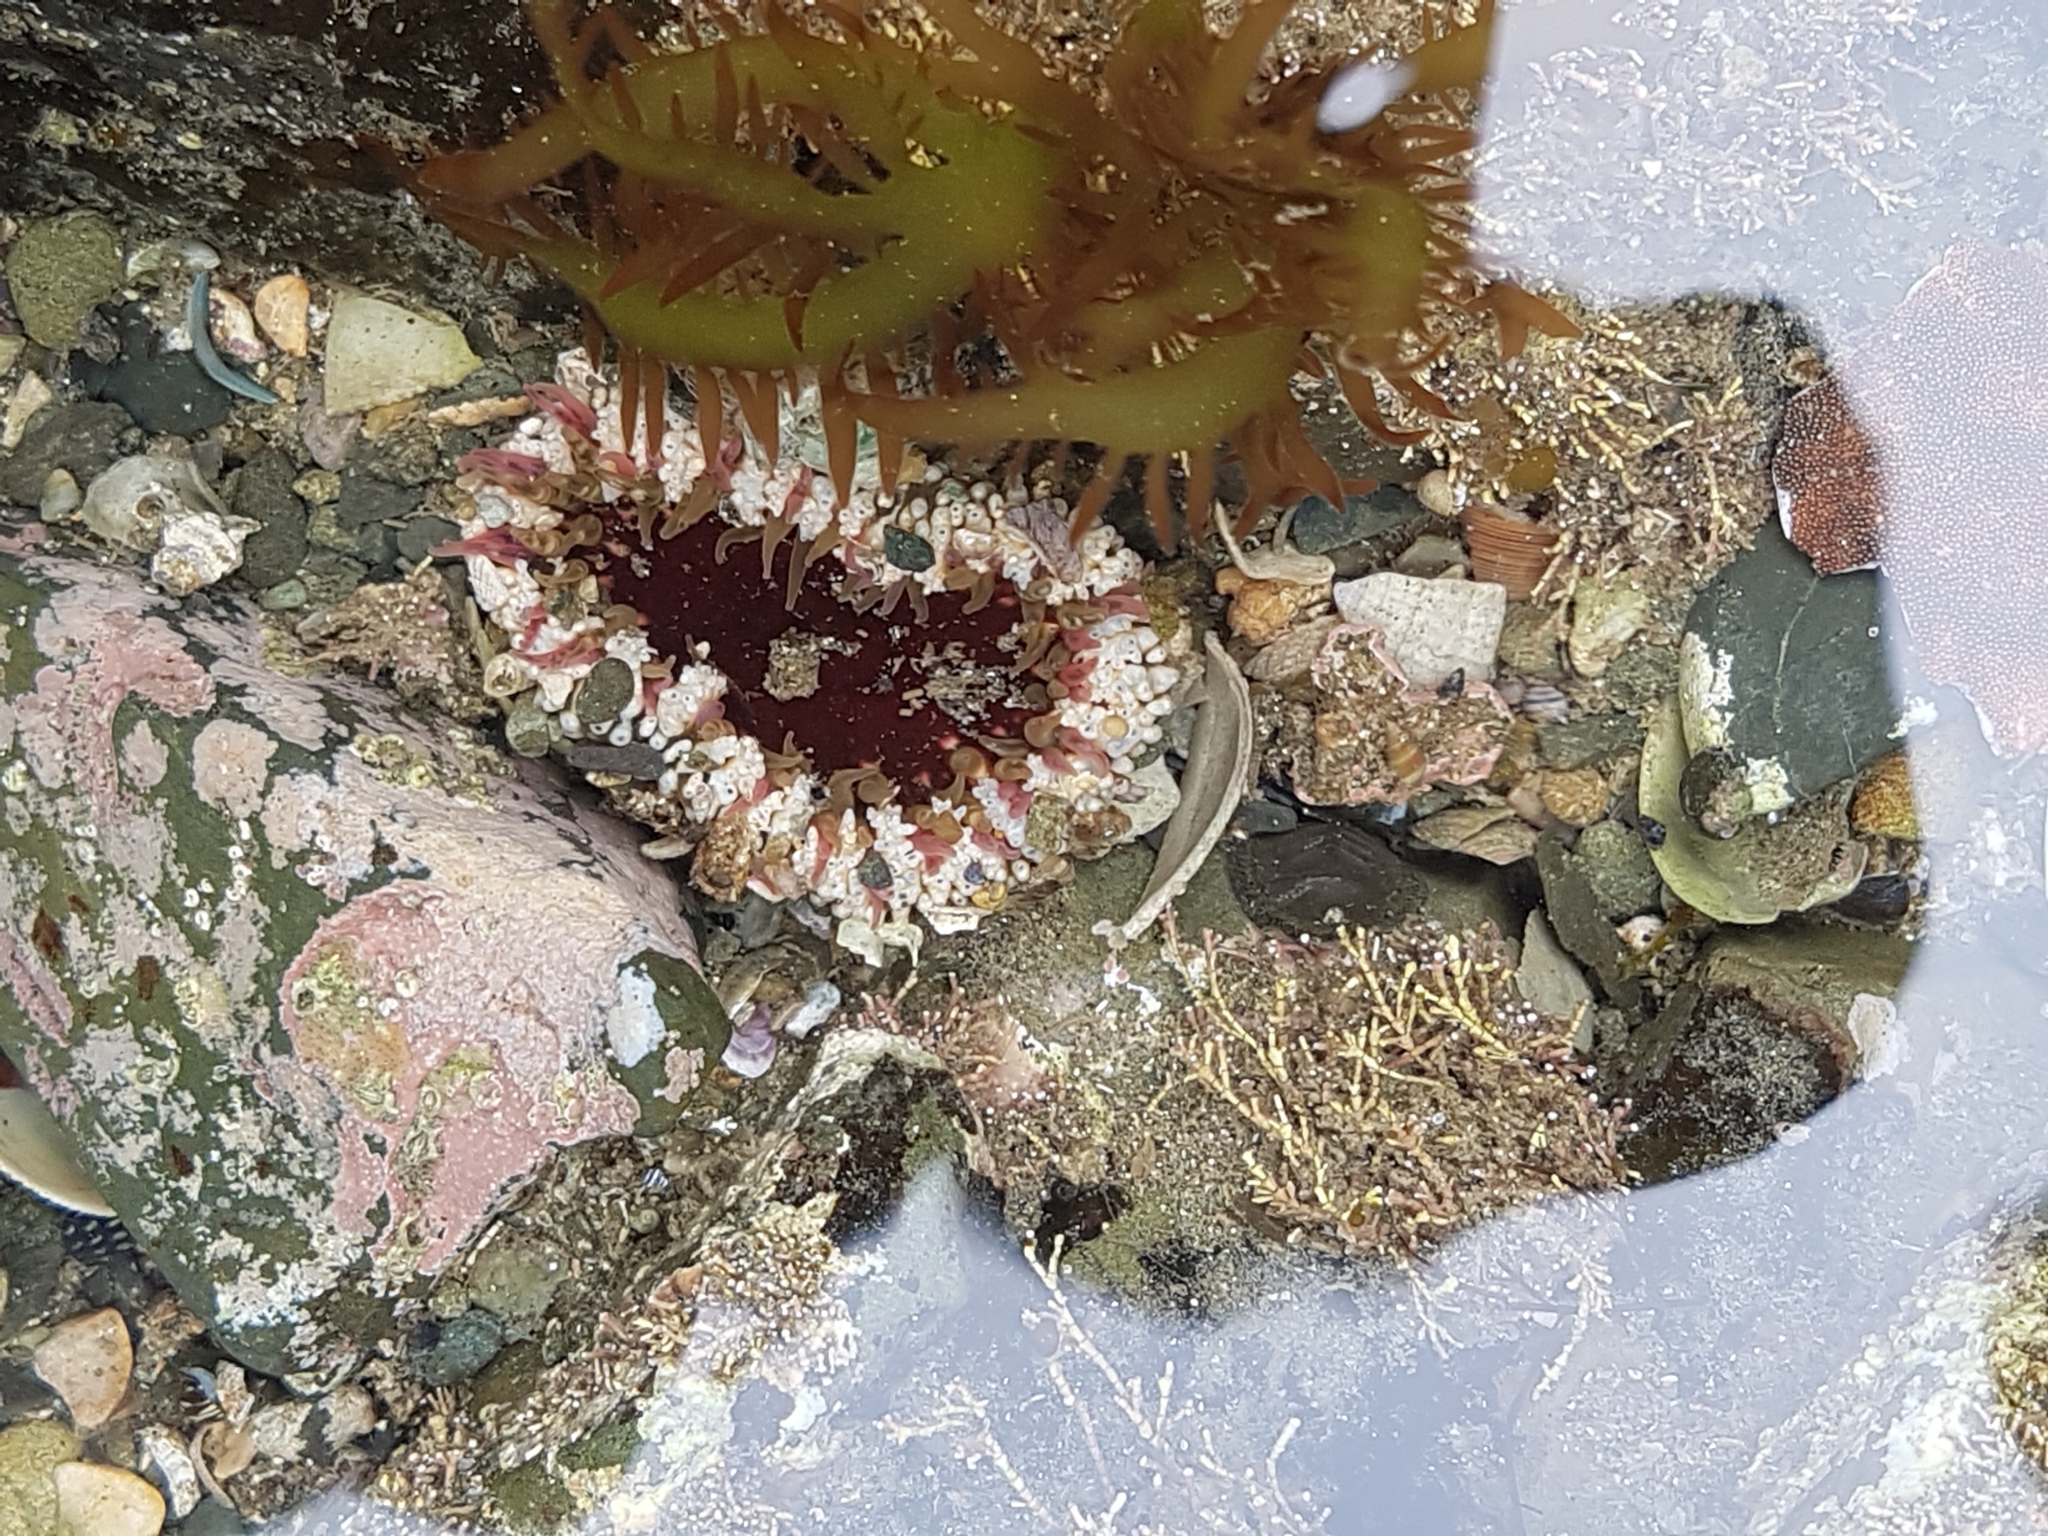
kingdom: Animalia
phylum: Cnidaria
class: Anthozoa
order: Actiniaria
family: Actiniidae
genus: Oulactis
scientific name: Oulactis muscosa
